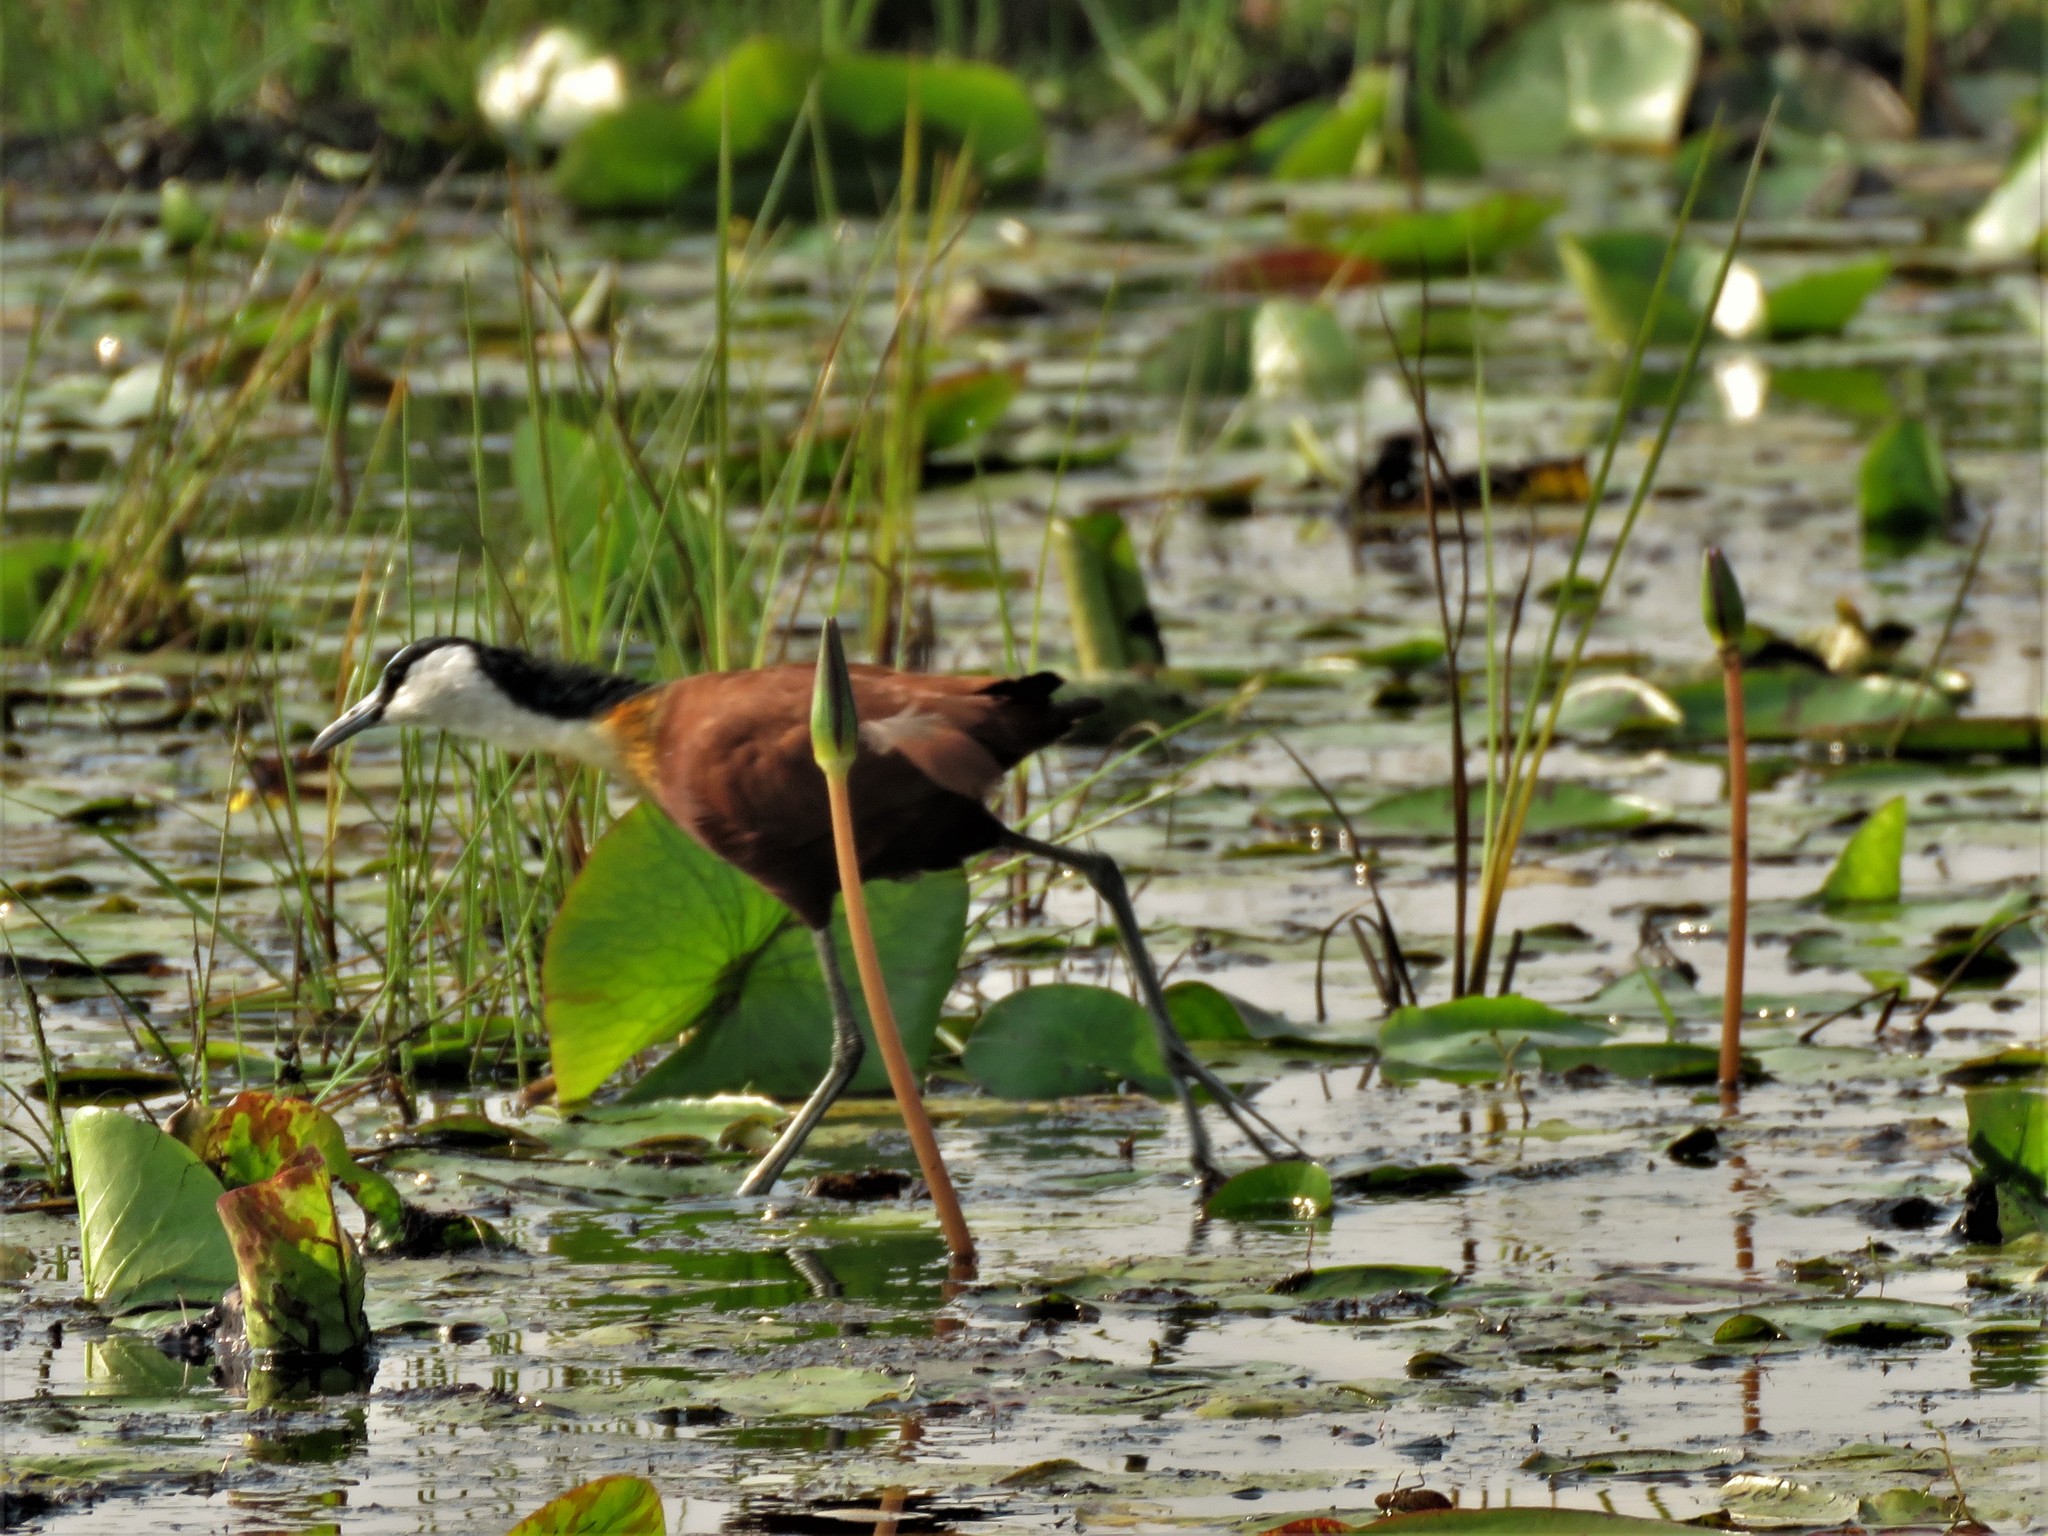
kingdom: Animalia
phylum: Chordata
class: Aves
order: Charadriiformes
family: Jacanidae
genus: Actophilornis
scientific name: Actophilornis africanus
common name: African jacana
